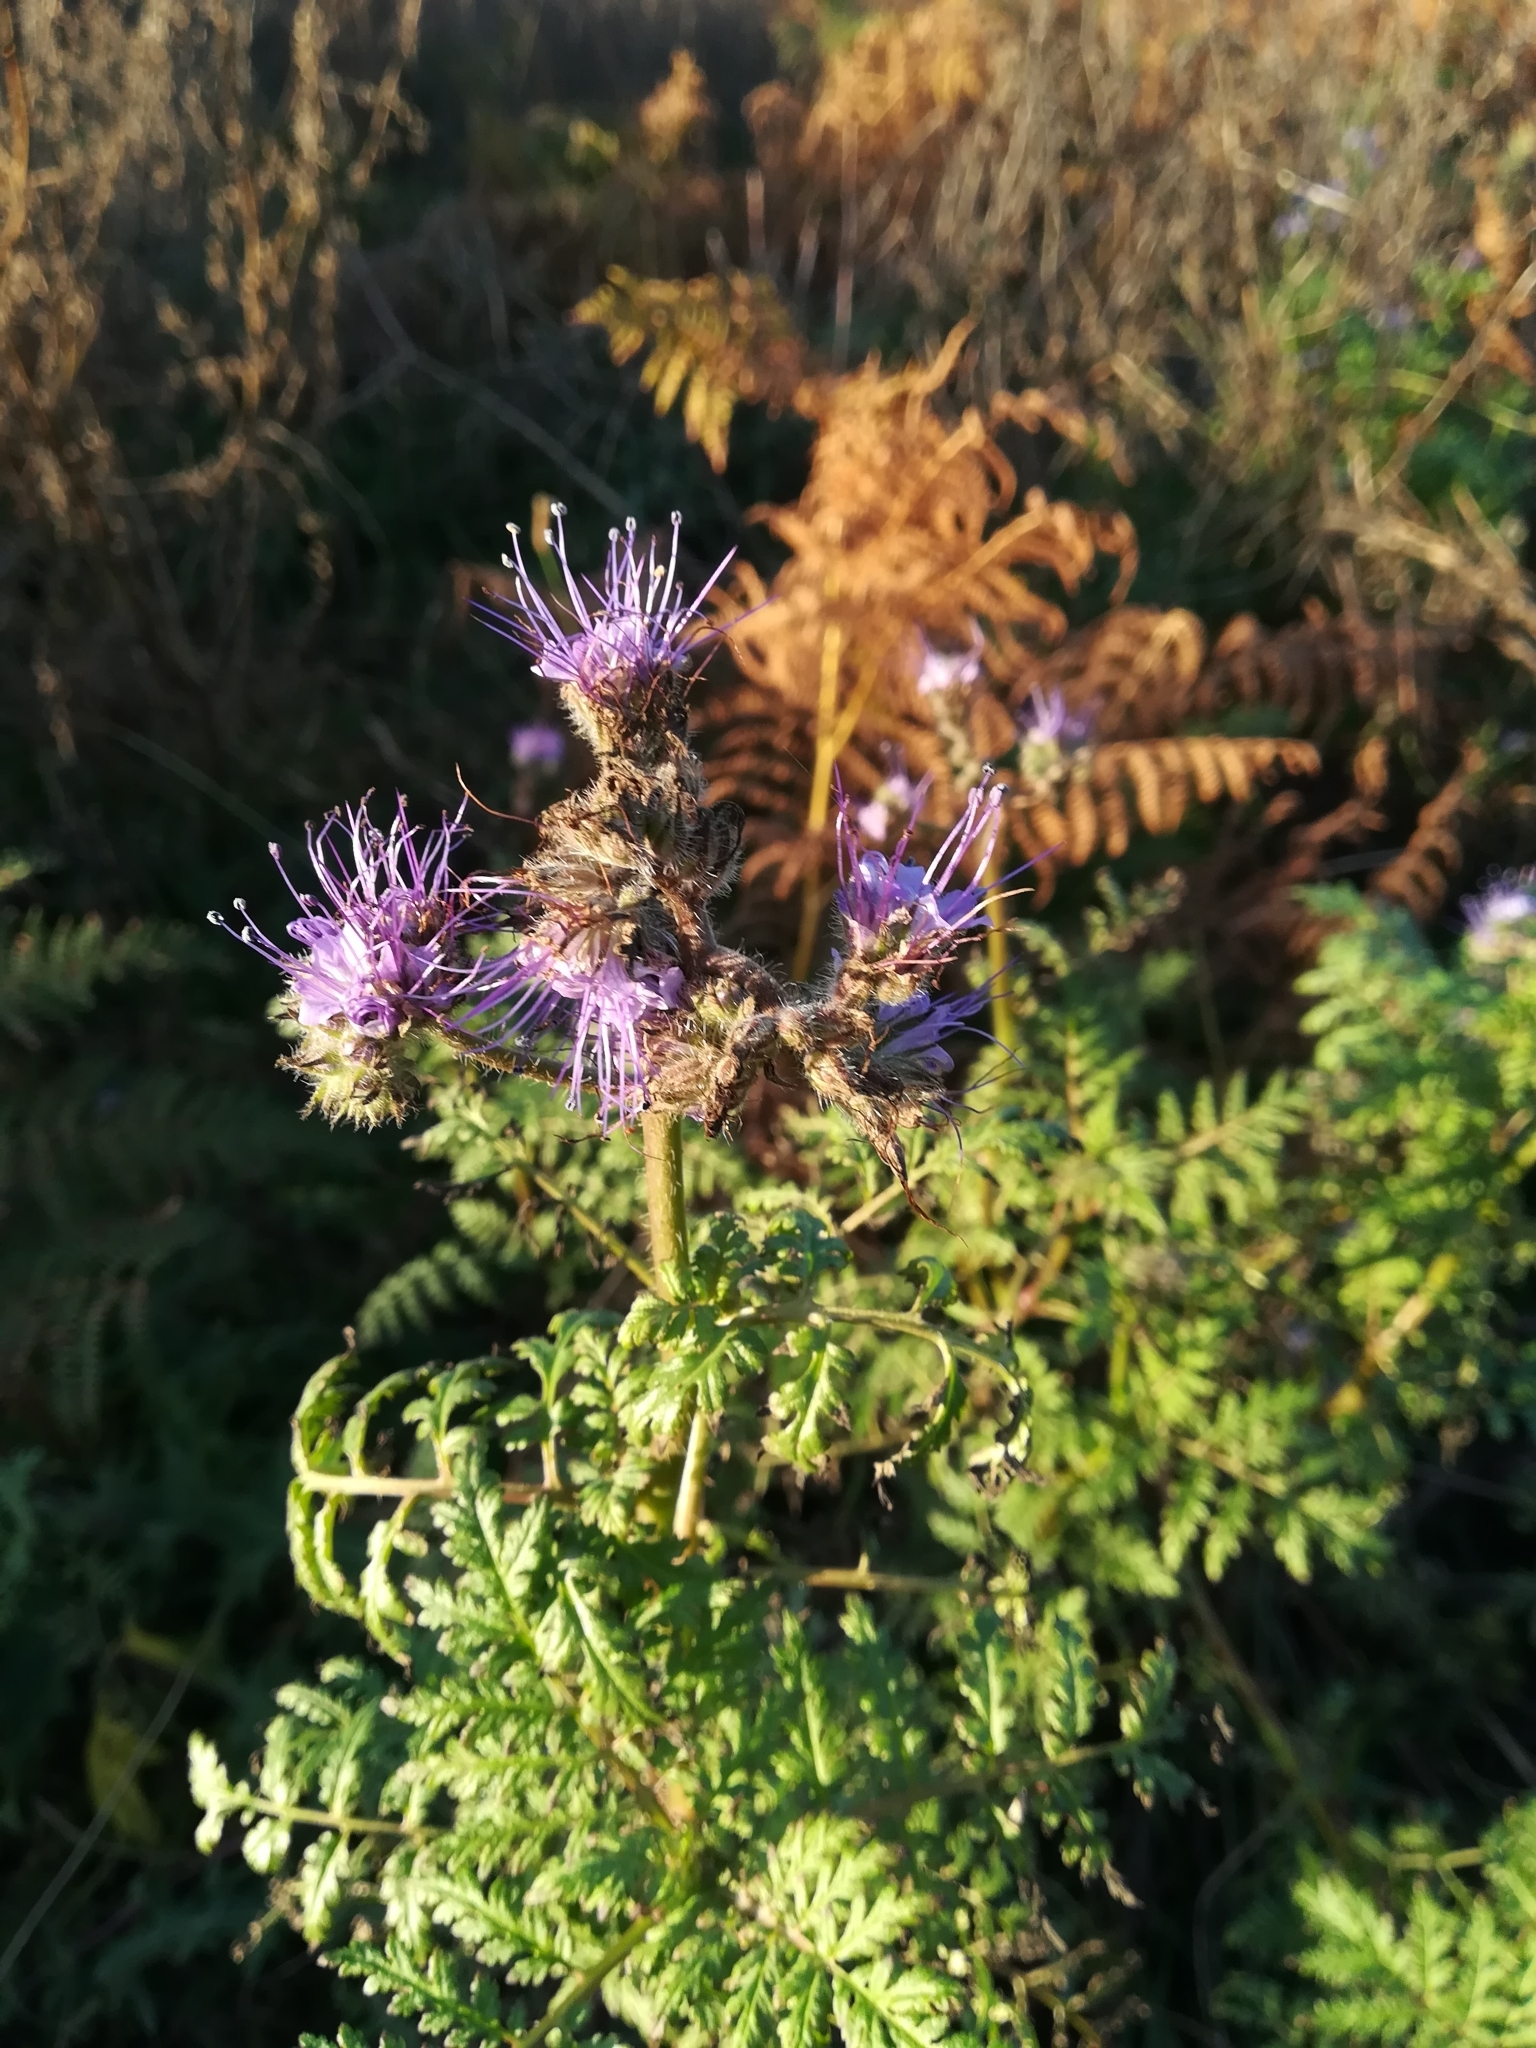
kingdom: Plantae
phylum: Tracheophyta
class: Magnoliopsida
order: Boraginales
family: Hydrophyllaceae
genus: Phacelia
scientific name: Phacelia tanacetifolia
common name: Phacelia
